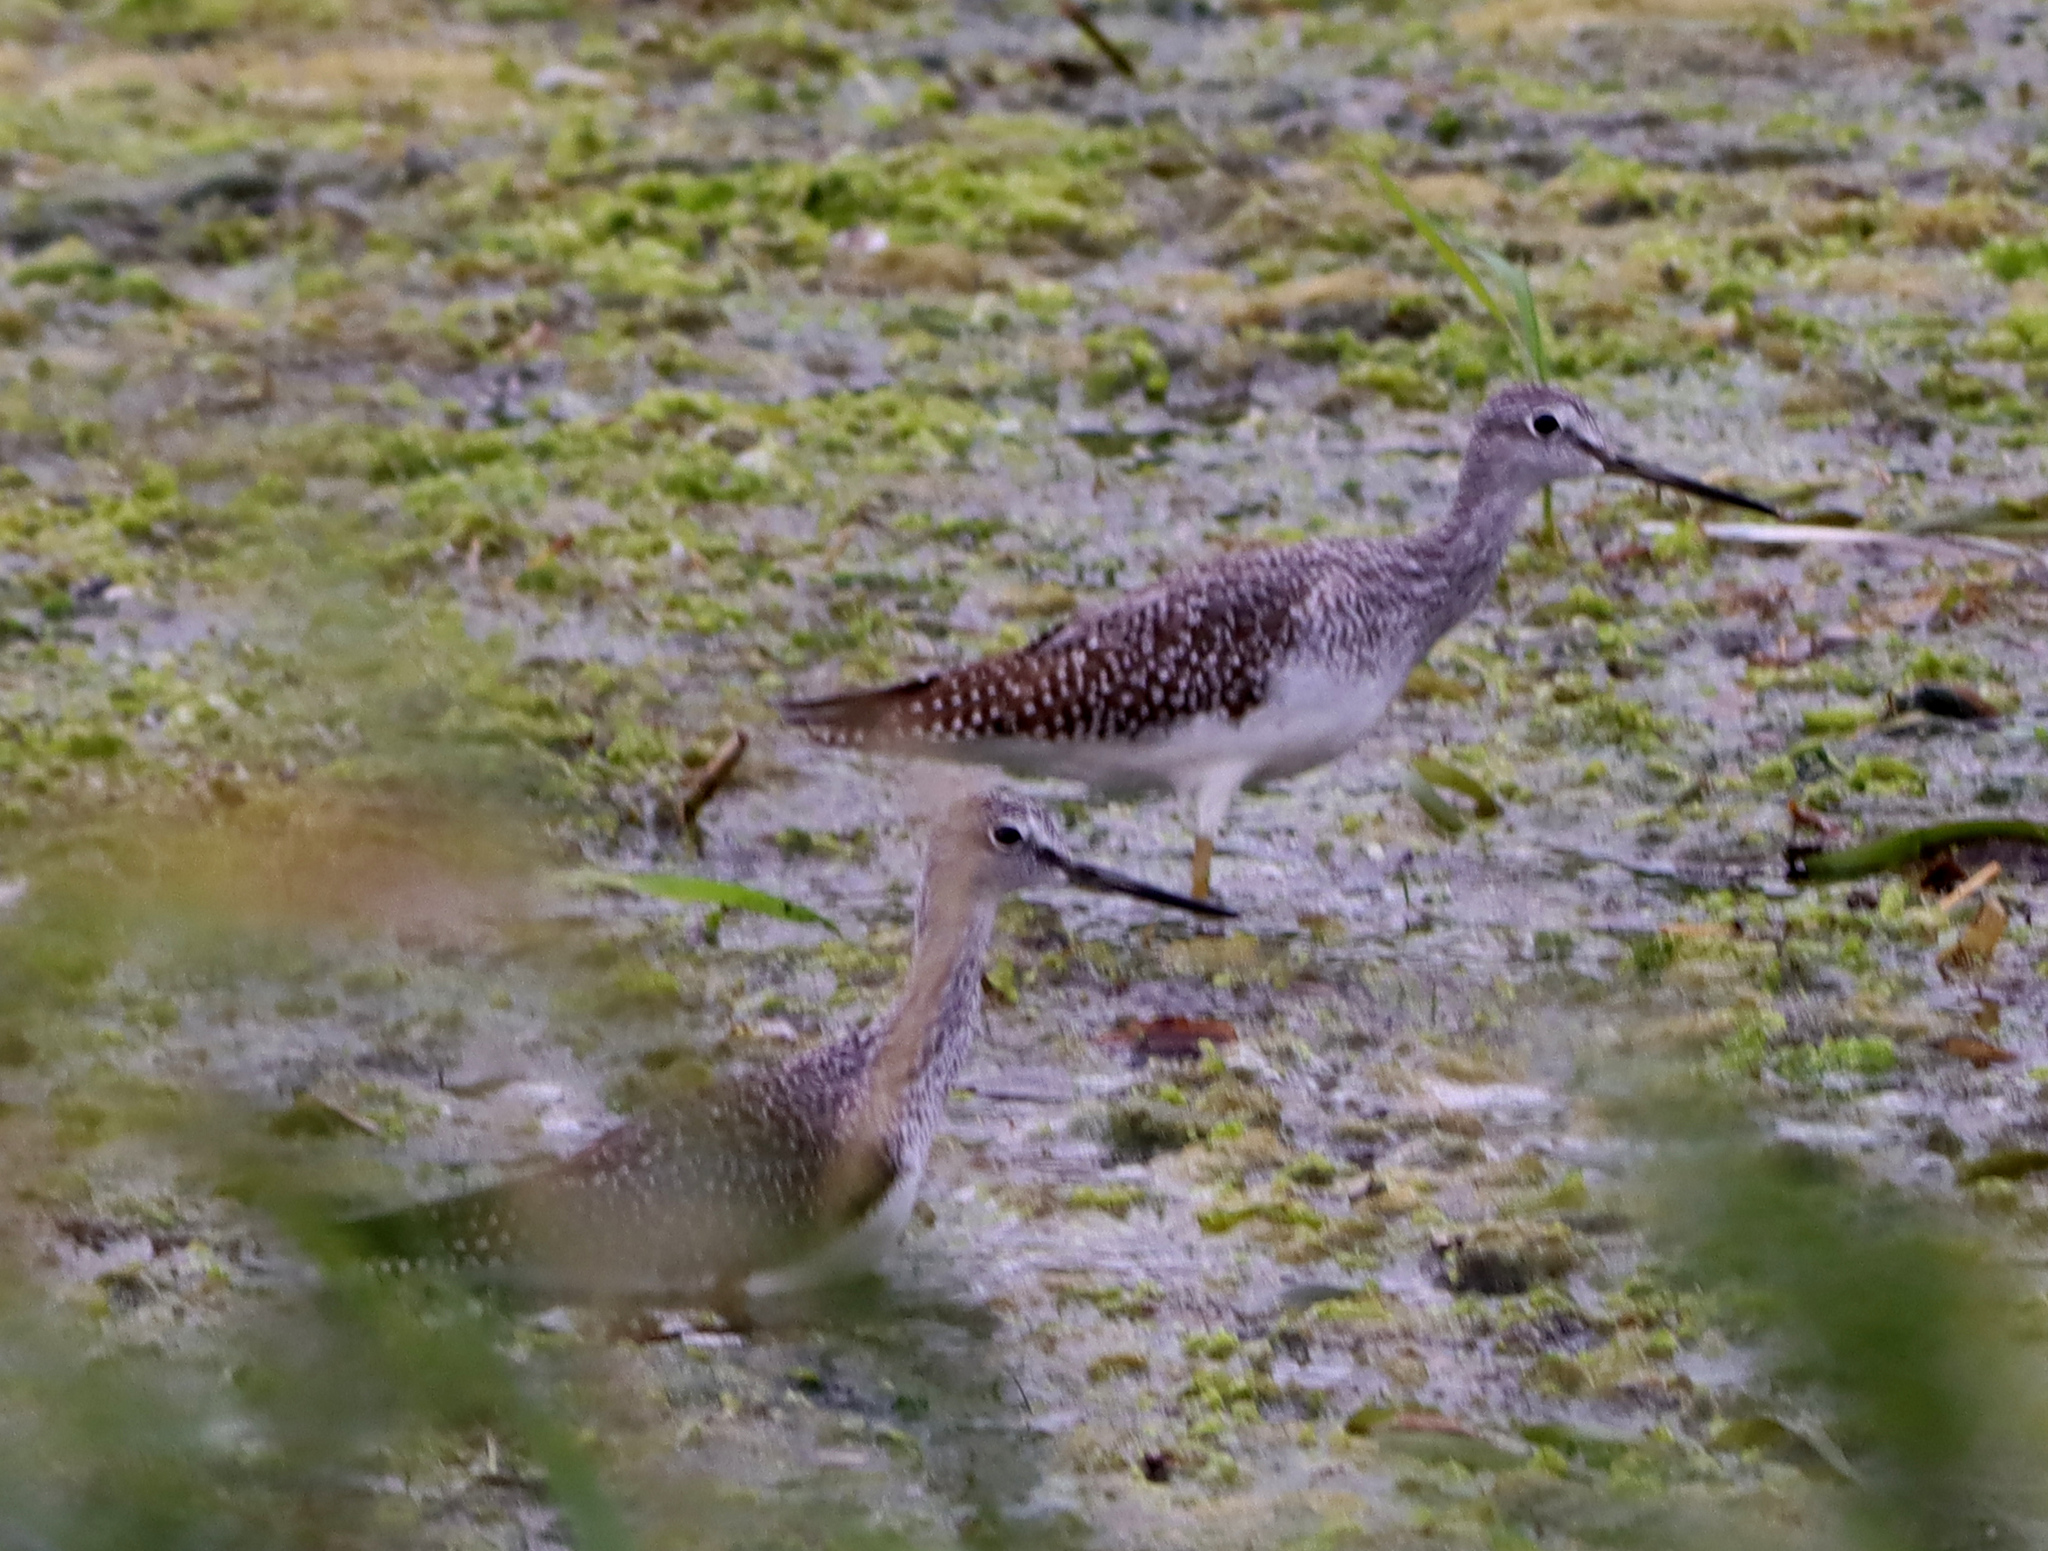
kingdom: Animalia
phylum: Chordata
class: Aves
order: Charadriiformes
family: Scolopacidae
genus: Tringa
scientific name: Tringa melanoleuca
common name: Greater yellowlegs
